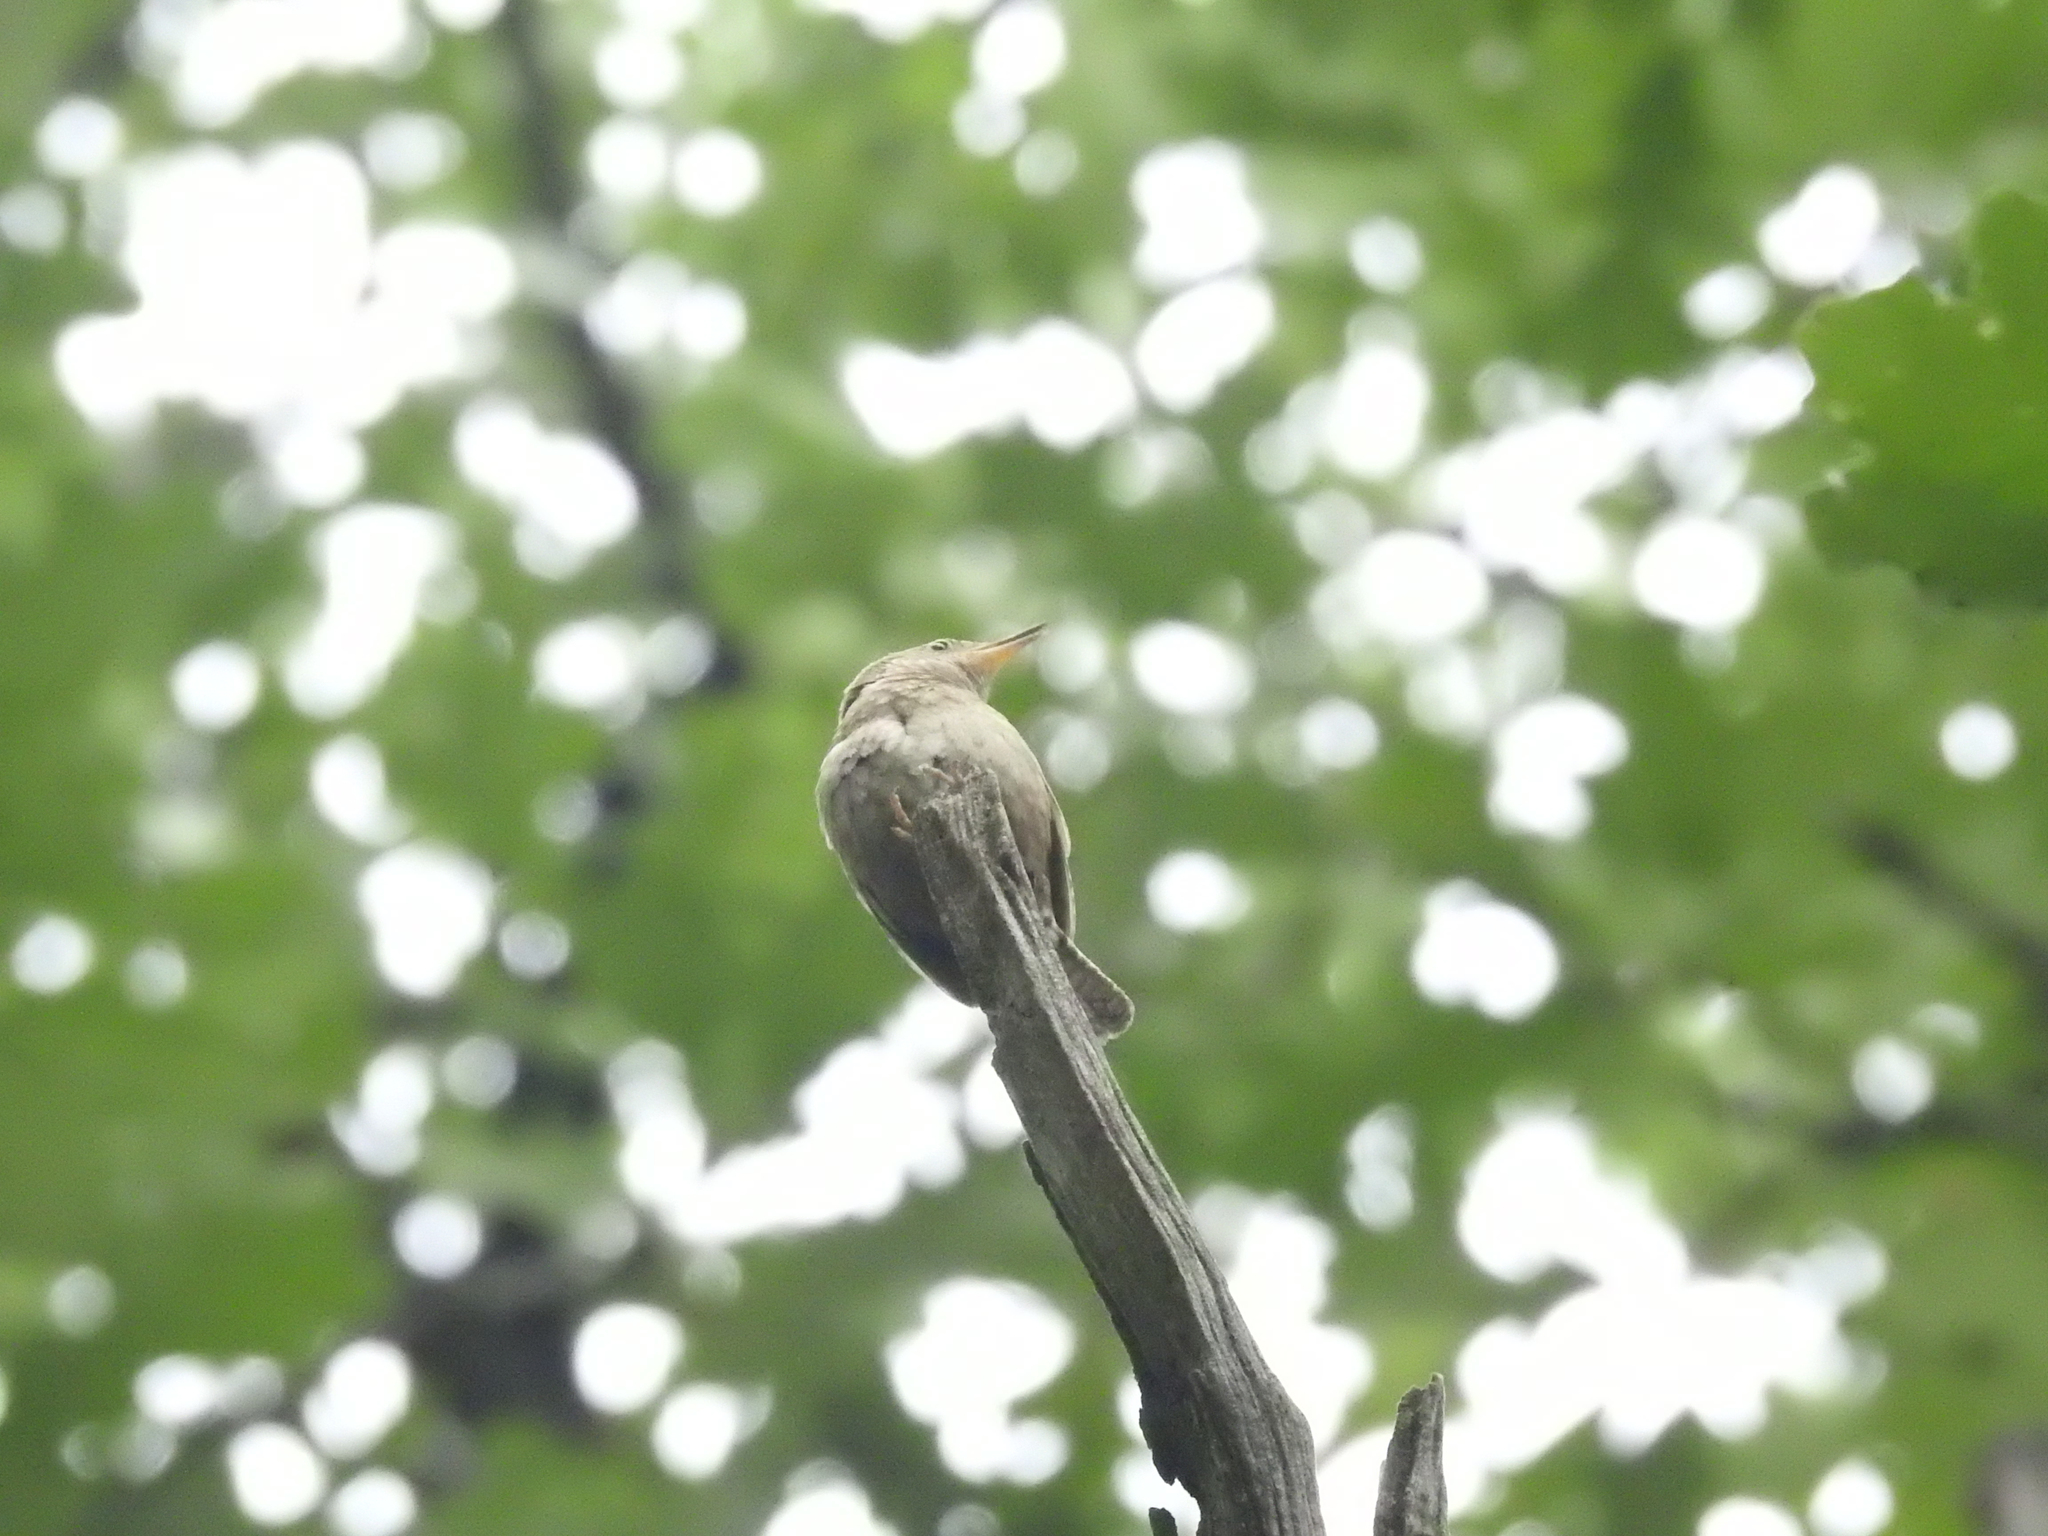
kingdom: Animalia
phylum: Chordata
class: Aves
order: Passeriformes
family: Troglodytidae
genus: Troglodytes
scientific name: Troglodytes aedon
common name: House wren
